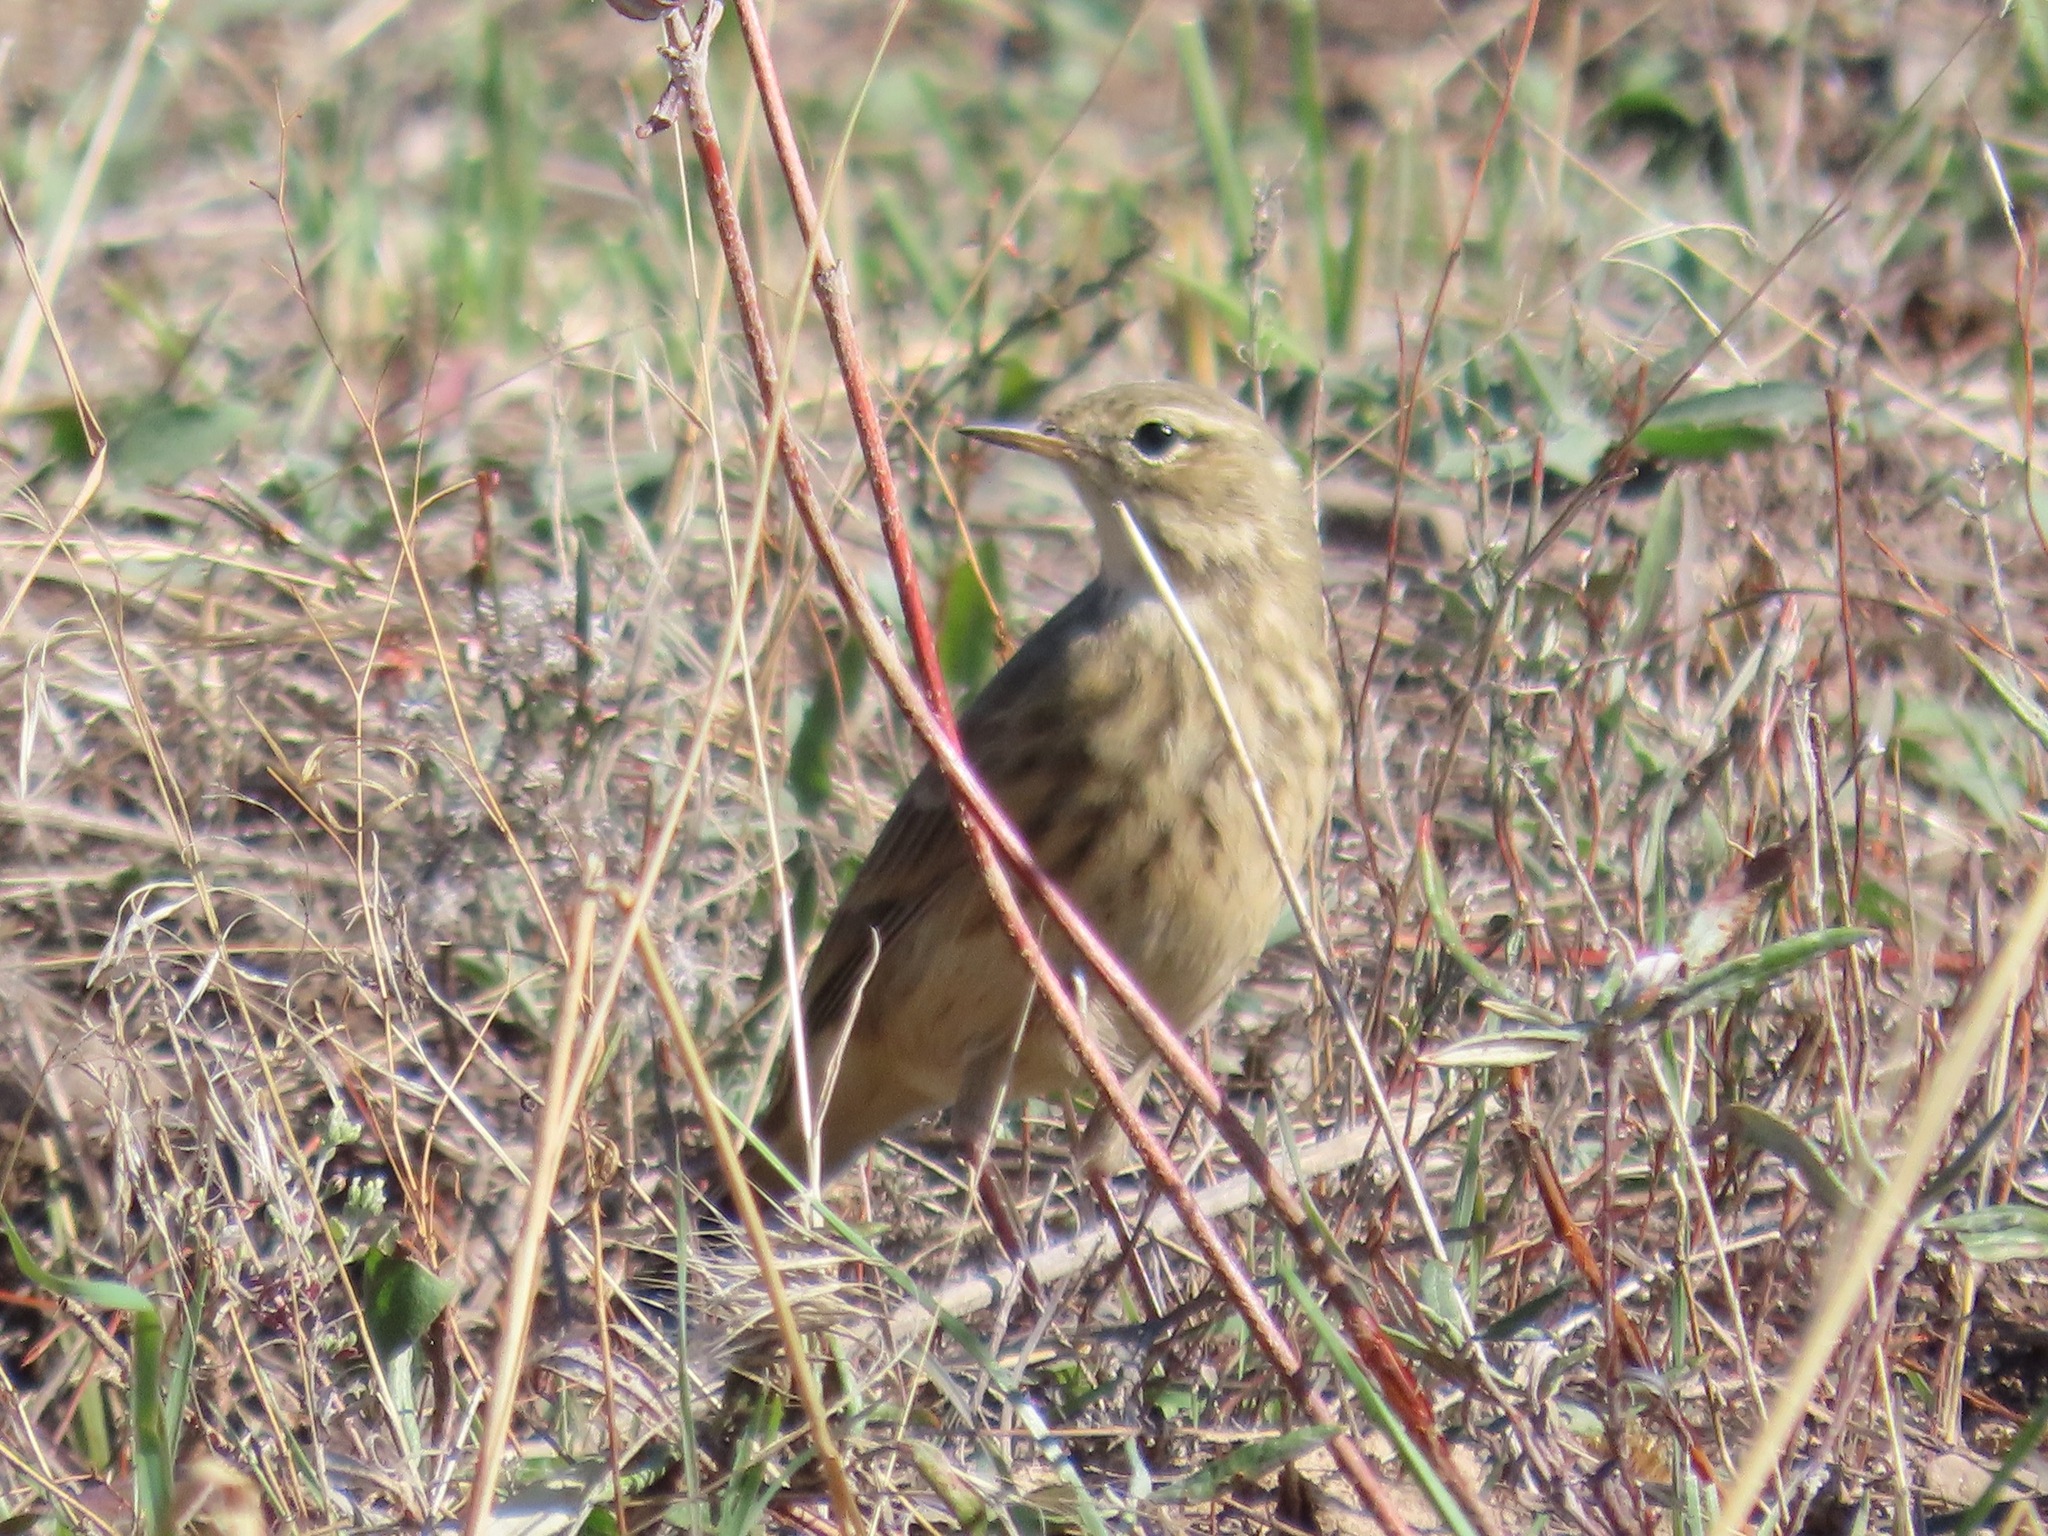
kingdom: Animalia
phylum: Chordata
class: Aves
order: Passeriformes
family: Motacillidae
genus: Anthus
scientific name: Anthus rubescens
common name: Buff-bellied pipit
